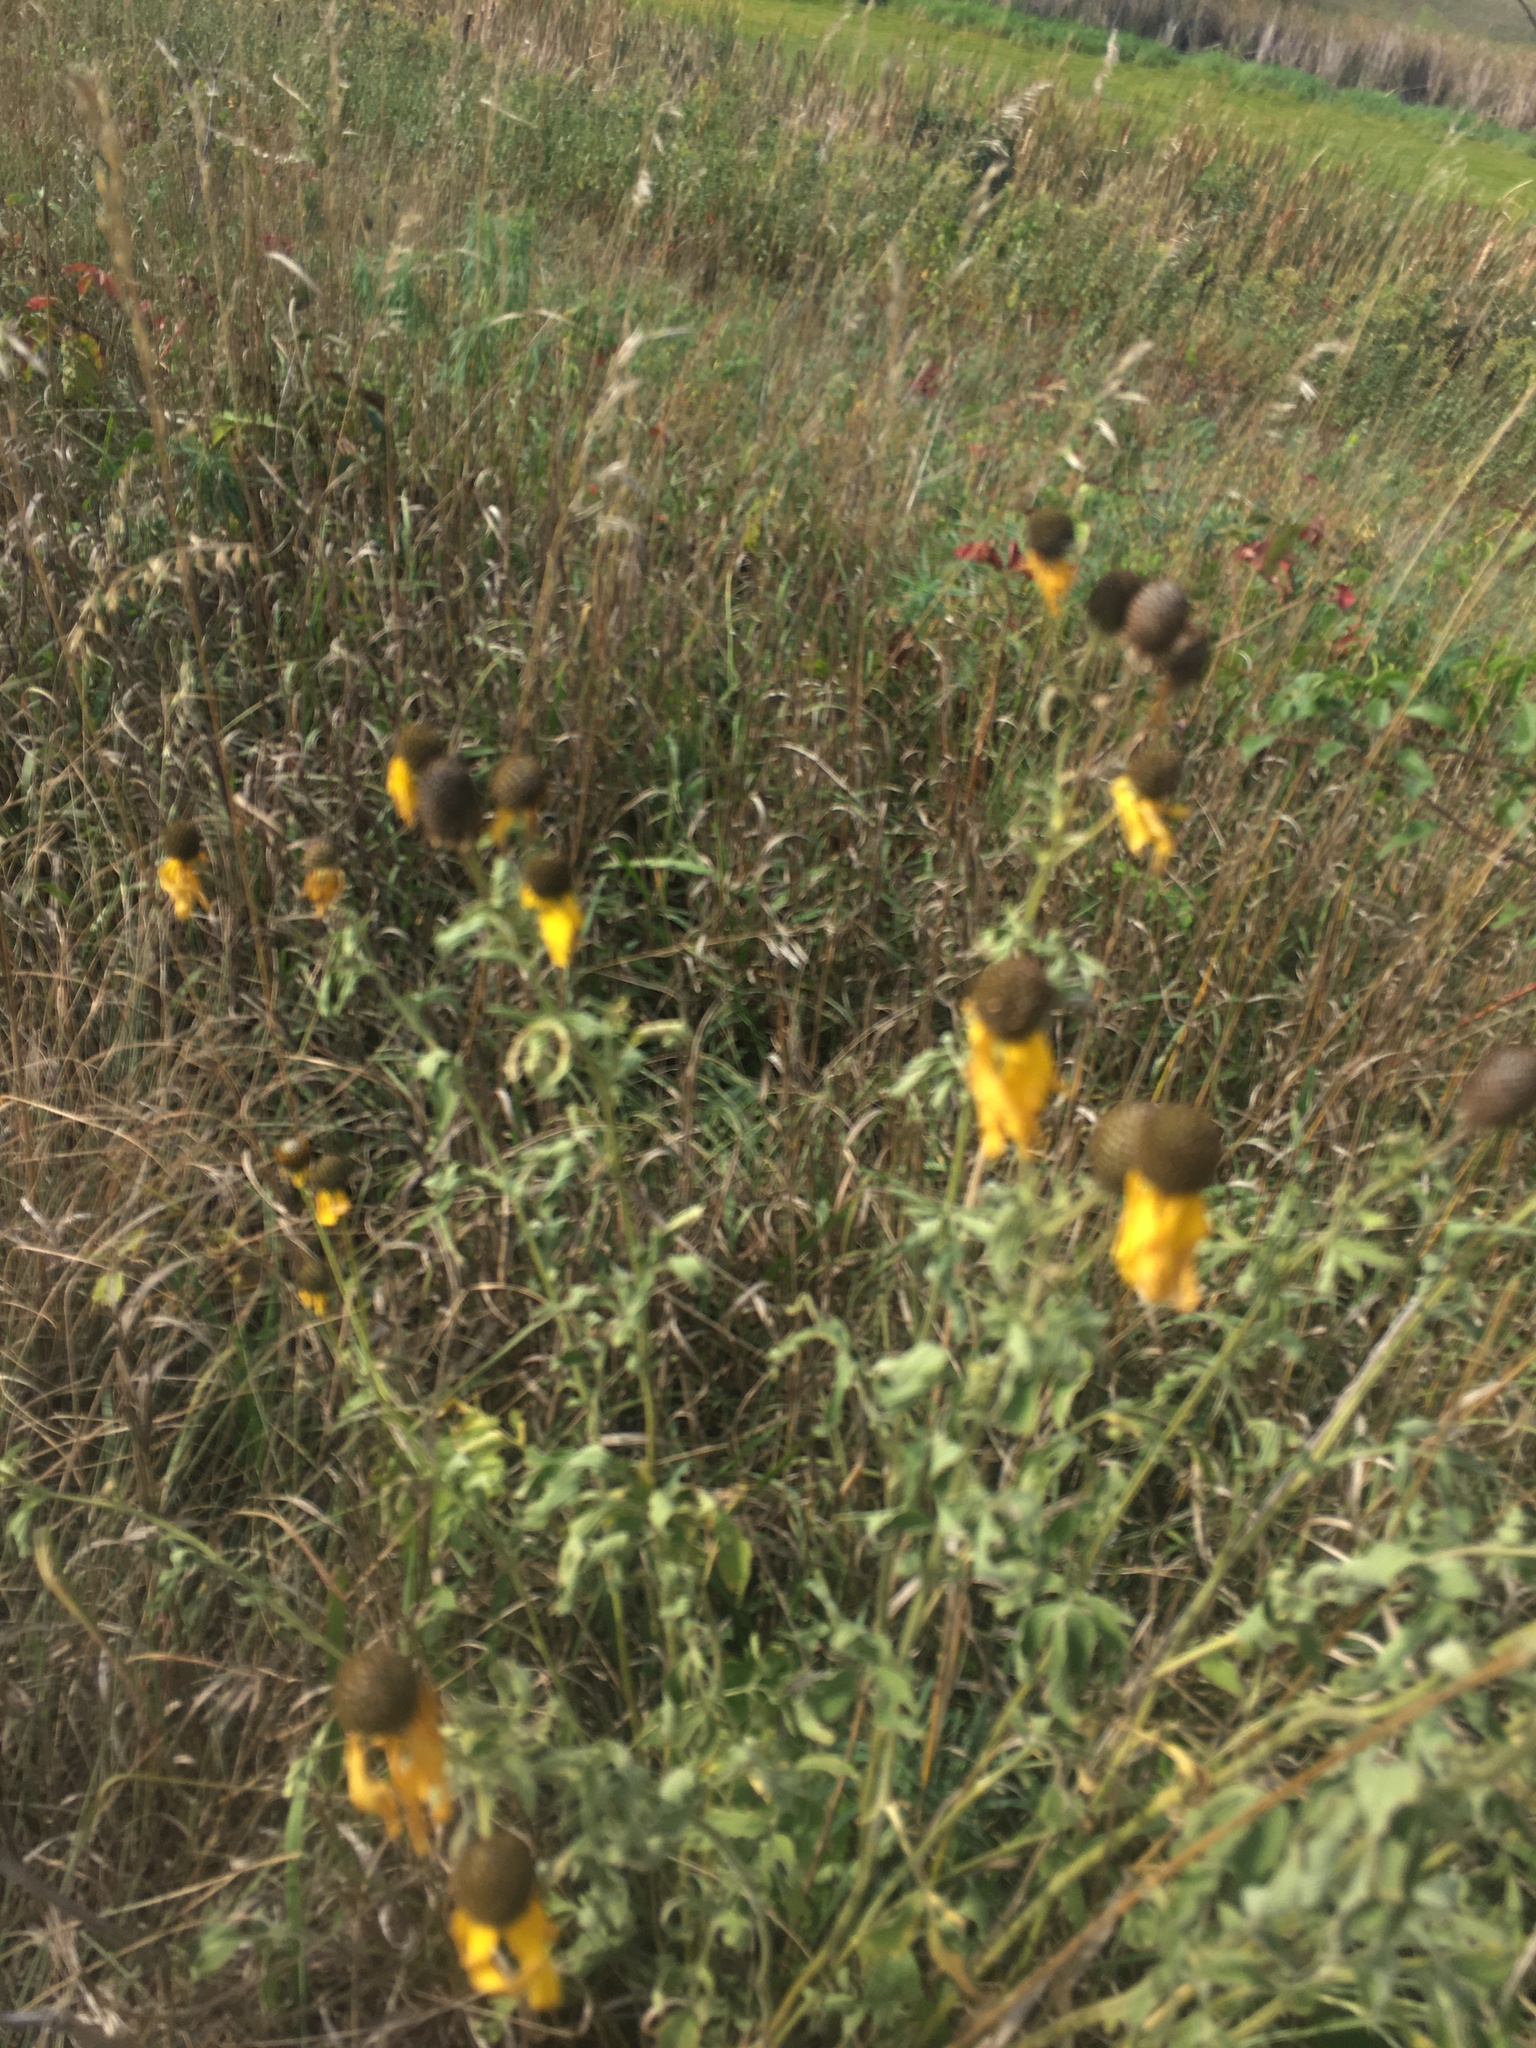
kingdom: Plantae
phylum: Tracheophyta
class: Magnoliopsida
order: Asterales
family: Asteraceae
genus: Ratibida
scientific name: Ratibida pinnata
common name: Drooping prairie-coneflower
